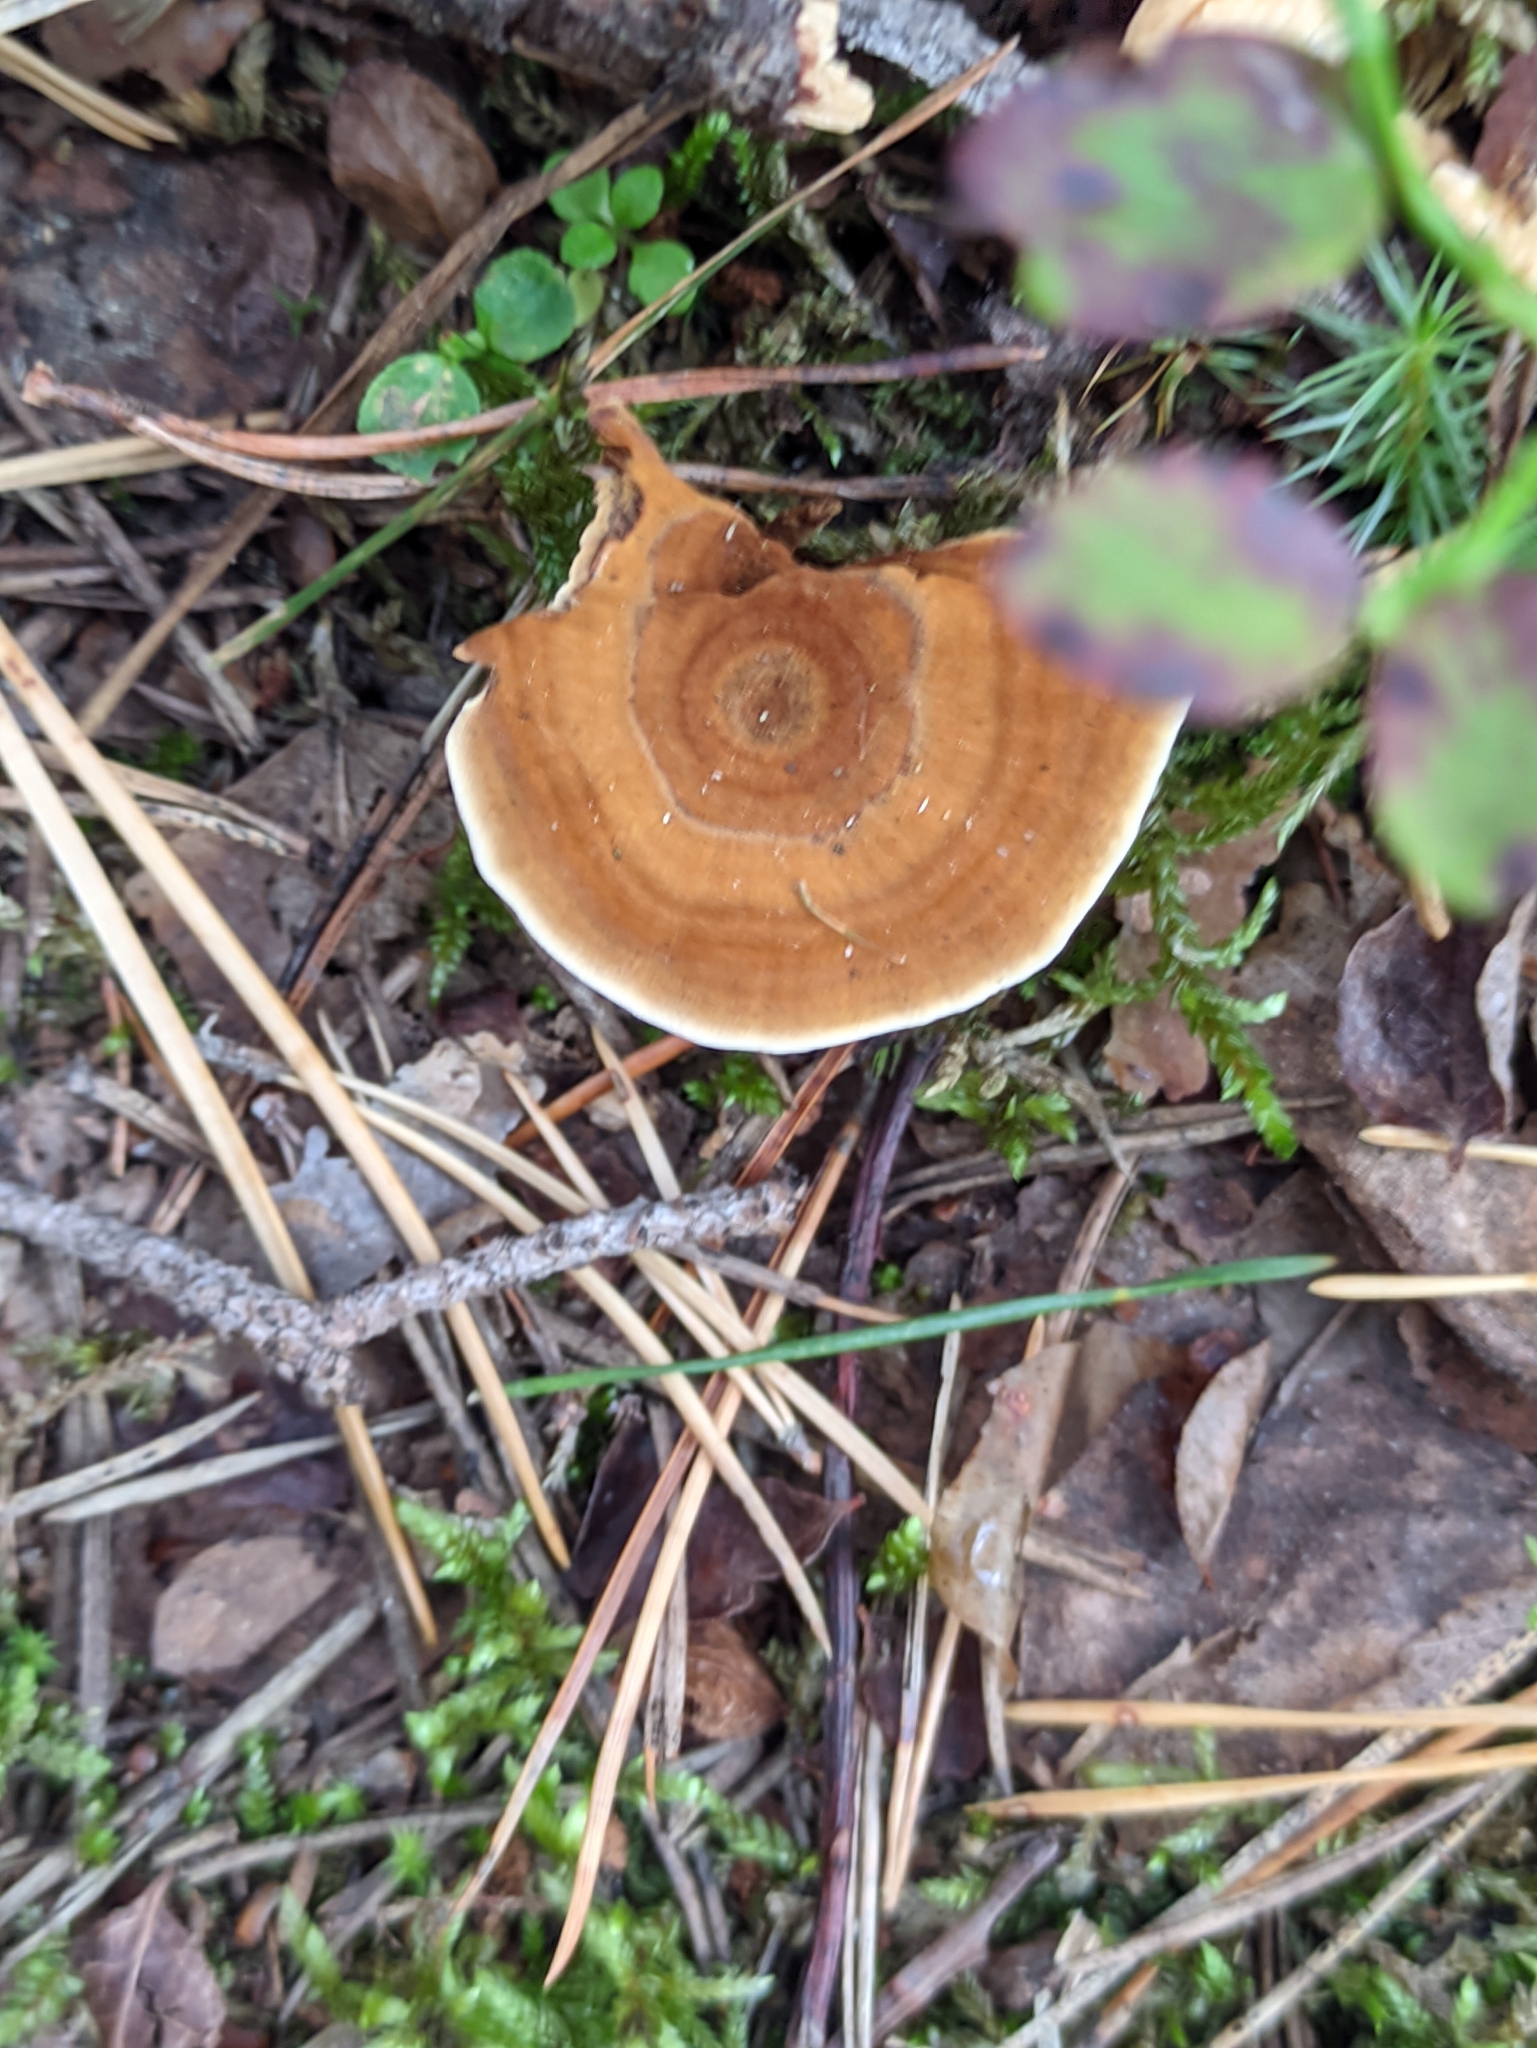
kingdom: Fungi
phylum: Basidiomycota
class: Agaricomycetes
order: Hymenochaetales
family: Hymenochaetaceae
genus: Coltricia
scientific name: Coltricia perennis
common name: Tiger's eye
